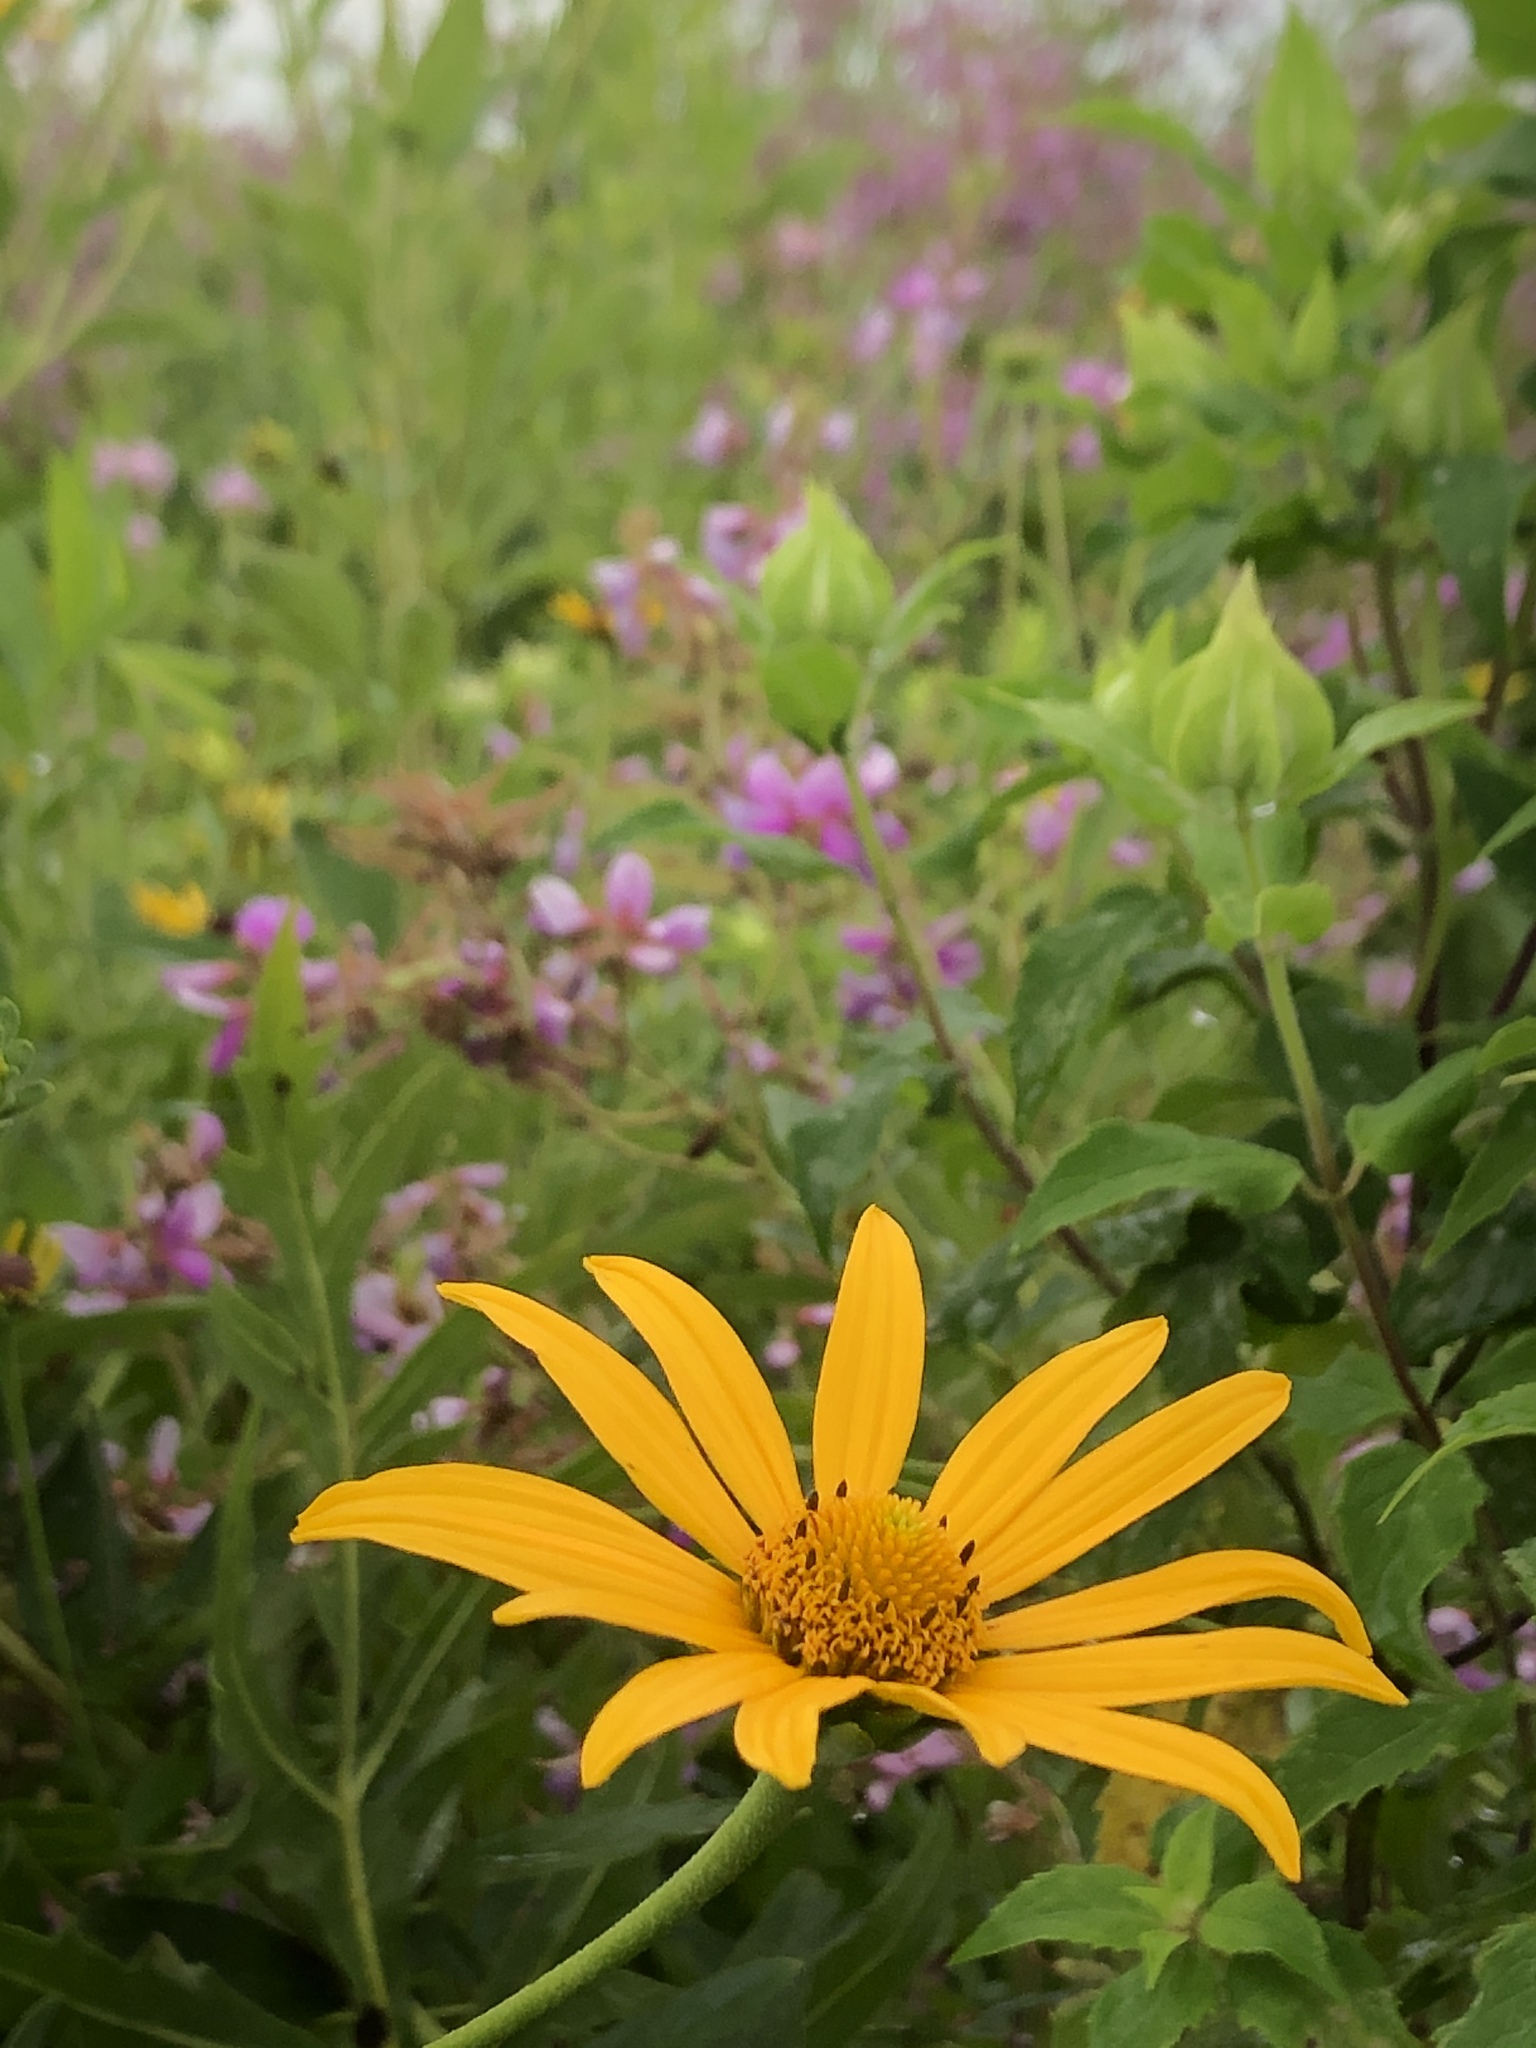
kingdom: Plantae
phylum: Tracheophyta
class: Magnoliopsida
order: Asterales
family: Asteraceae
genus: Heliopsis
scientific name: Heliopsis helianthoides
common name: False sunflower
